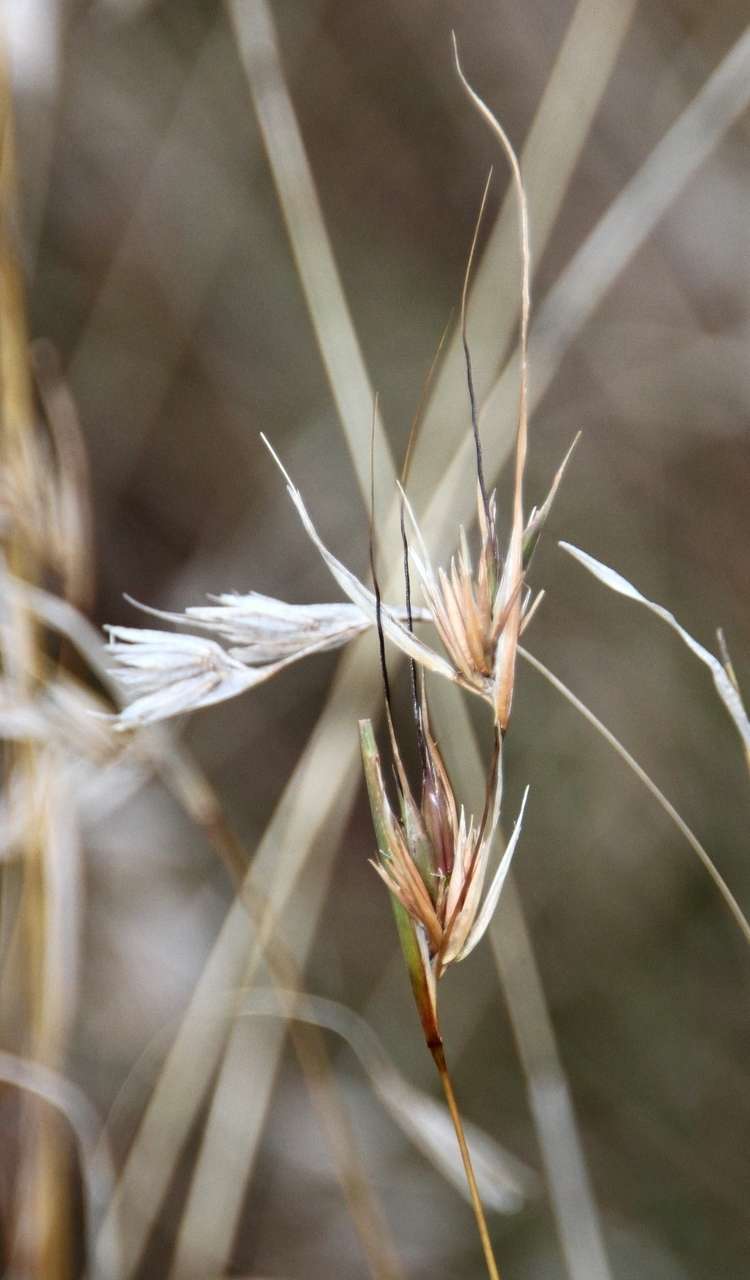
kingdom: Plantae
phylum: Tracheophyta
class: Liliopsida
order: Poales
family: Poaceae
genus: Themeda
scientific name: Themeda triandra
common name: Kangaroo grass
